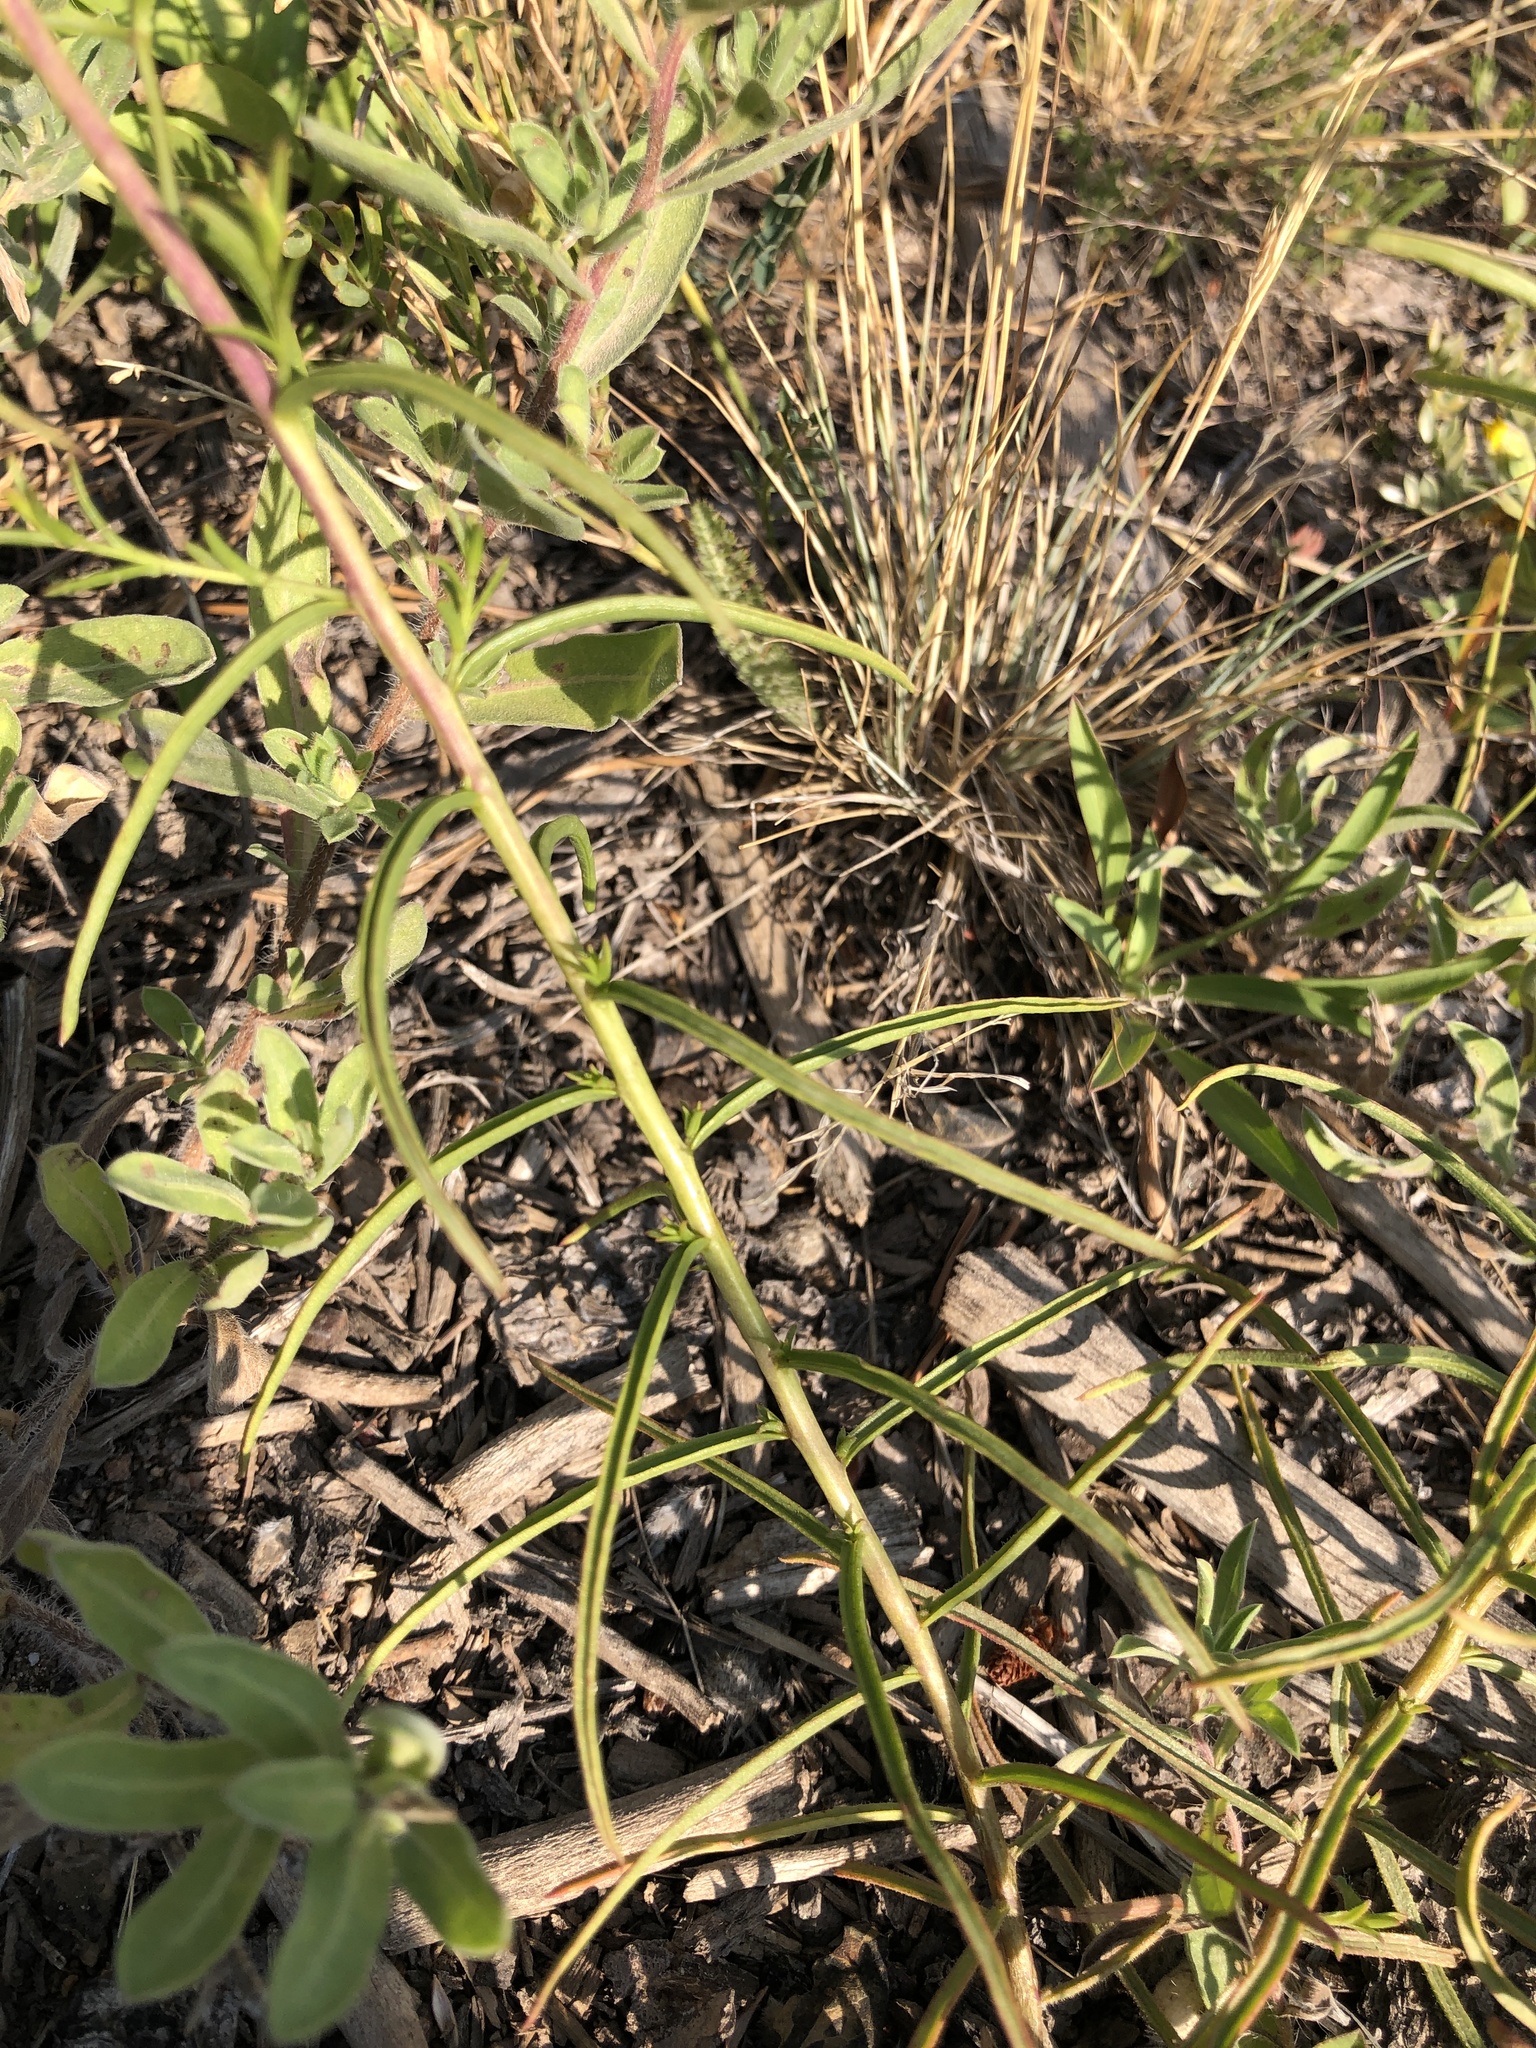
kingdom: Plantae
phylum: Tracheophyta
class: Magnoliopsida
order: Lamiales
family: Orobanchaceae
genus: Castilleja
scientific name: Castilleja linariifolia
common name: Wyoming paintbrush
